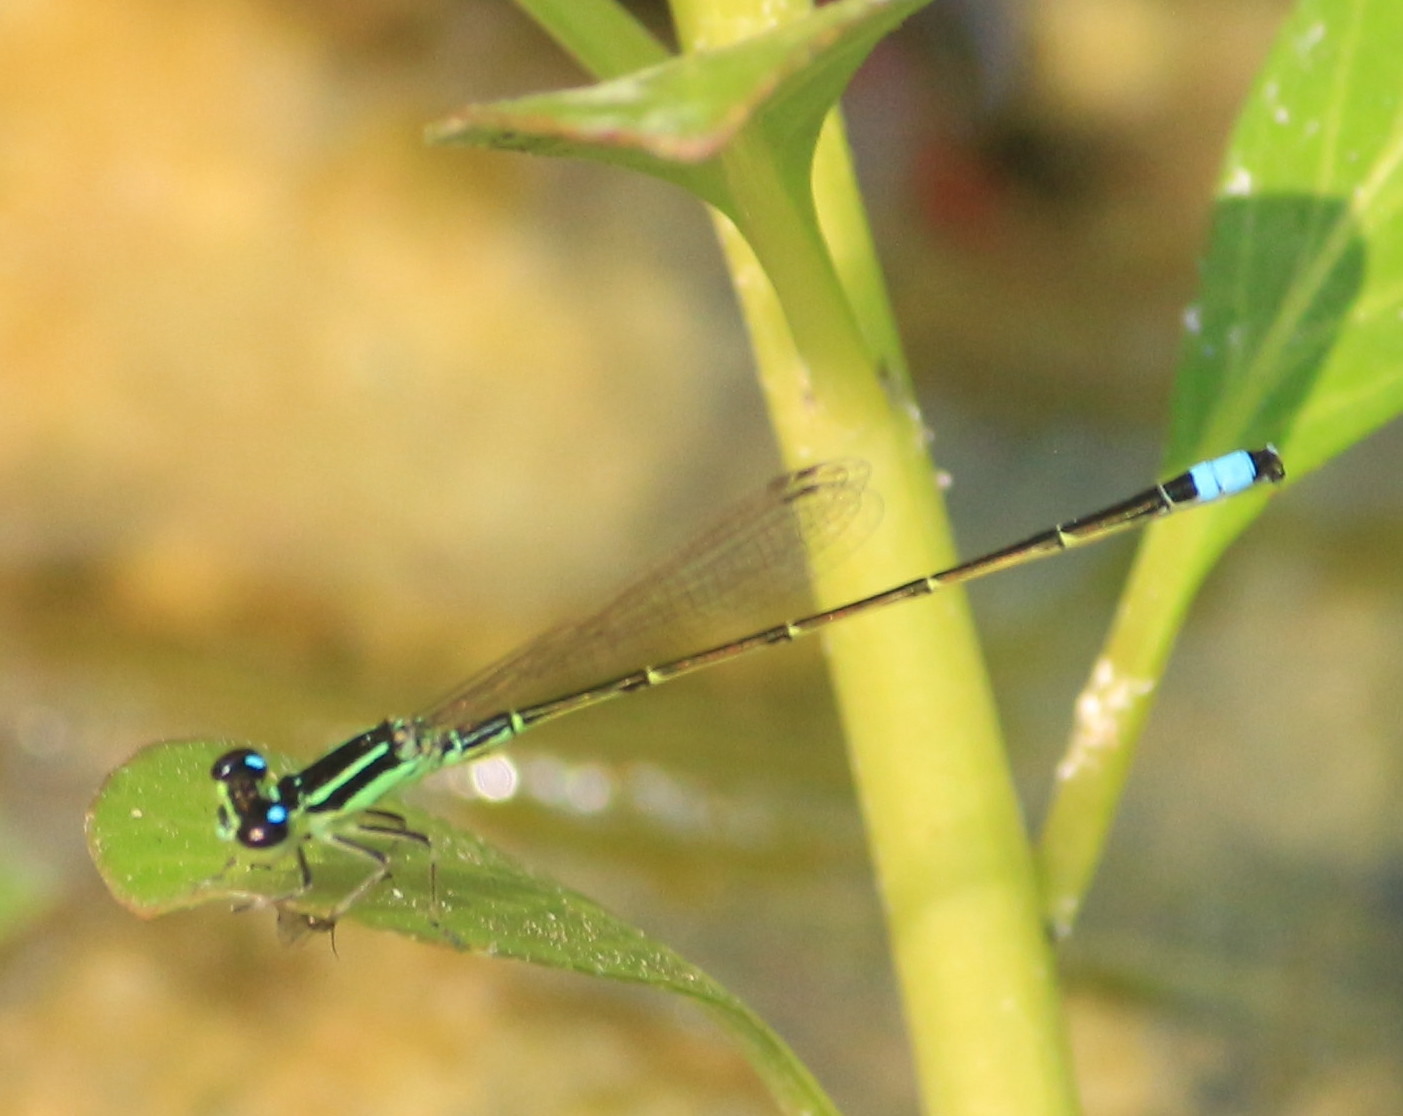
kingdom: Animalia
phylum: Arthropoda
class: Insecta
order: Odonata
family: Coenagrionidae
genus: Ischnura
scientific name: Ischnura capreolus
